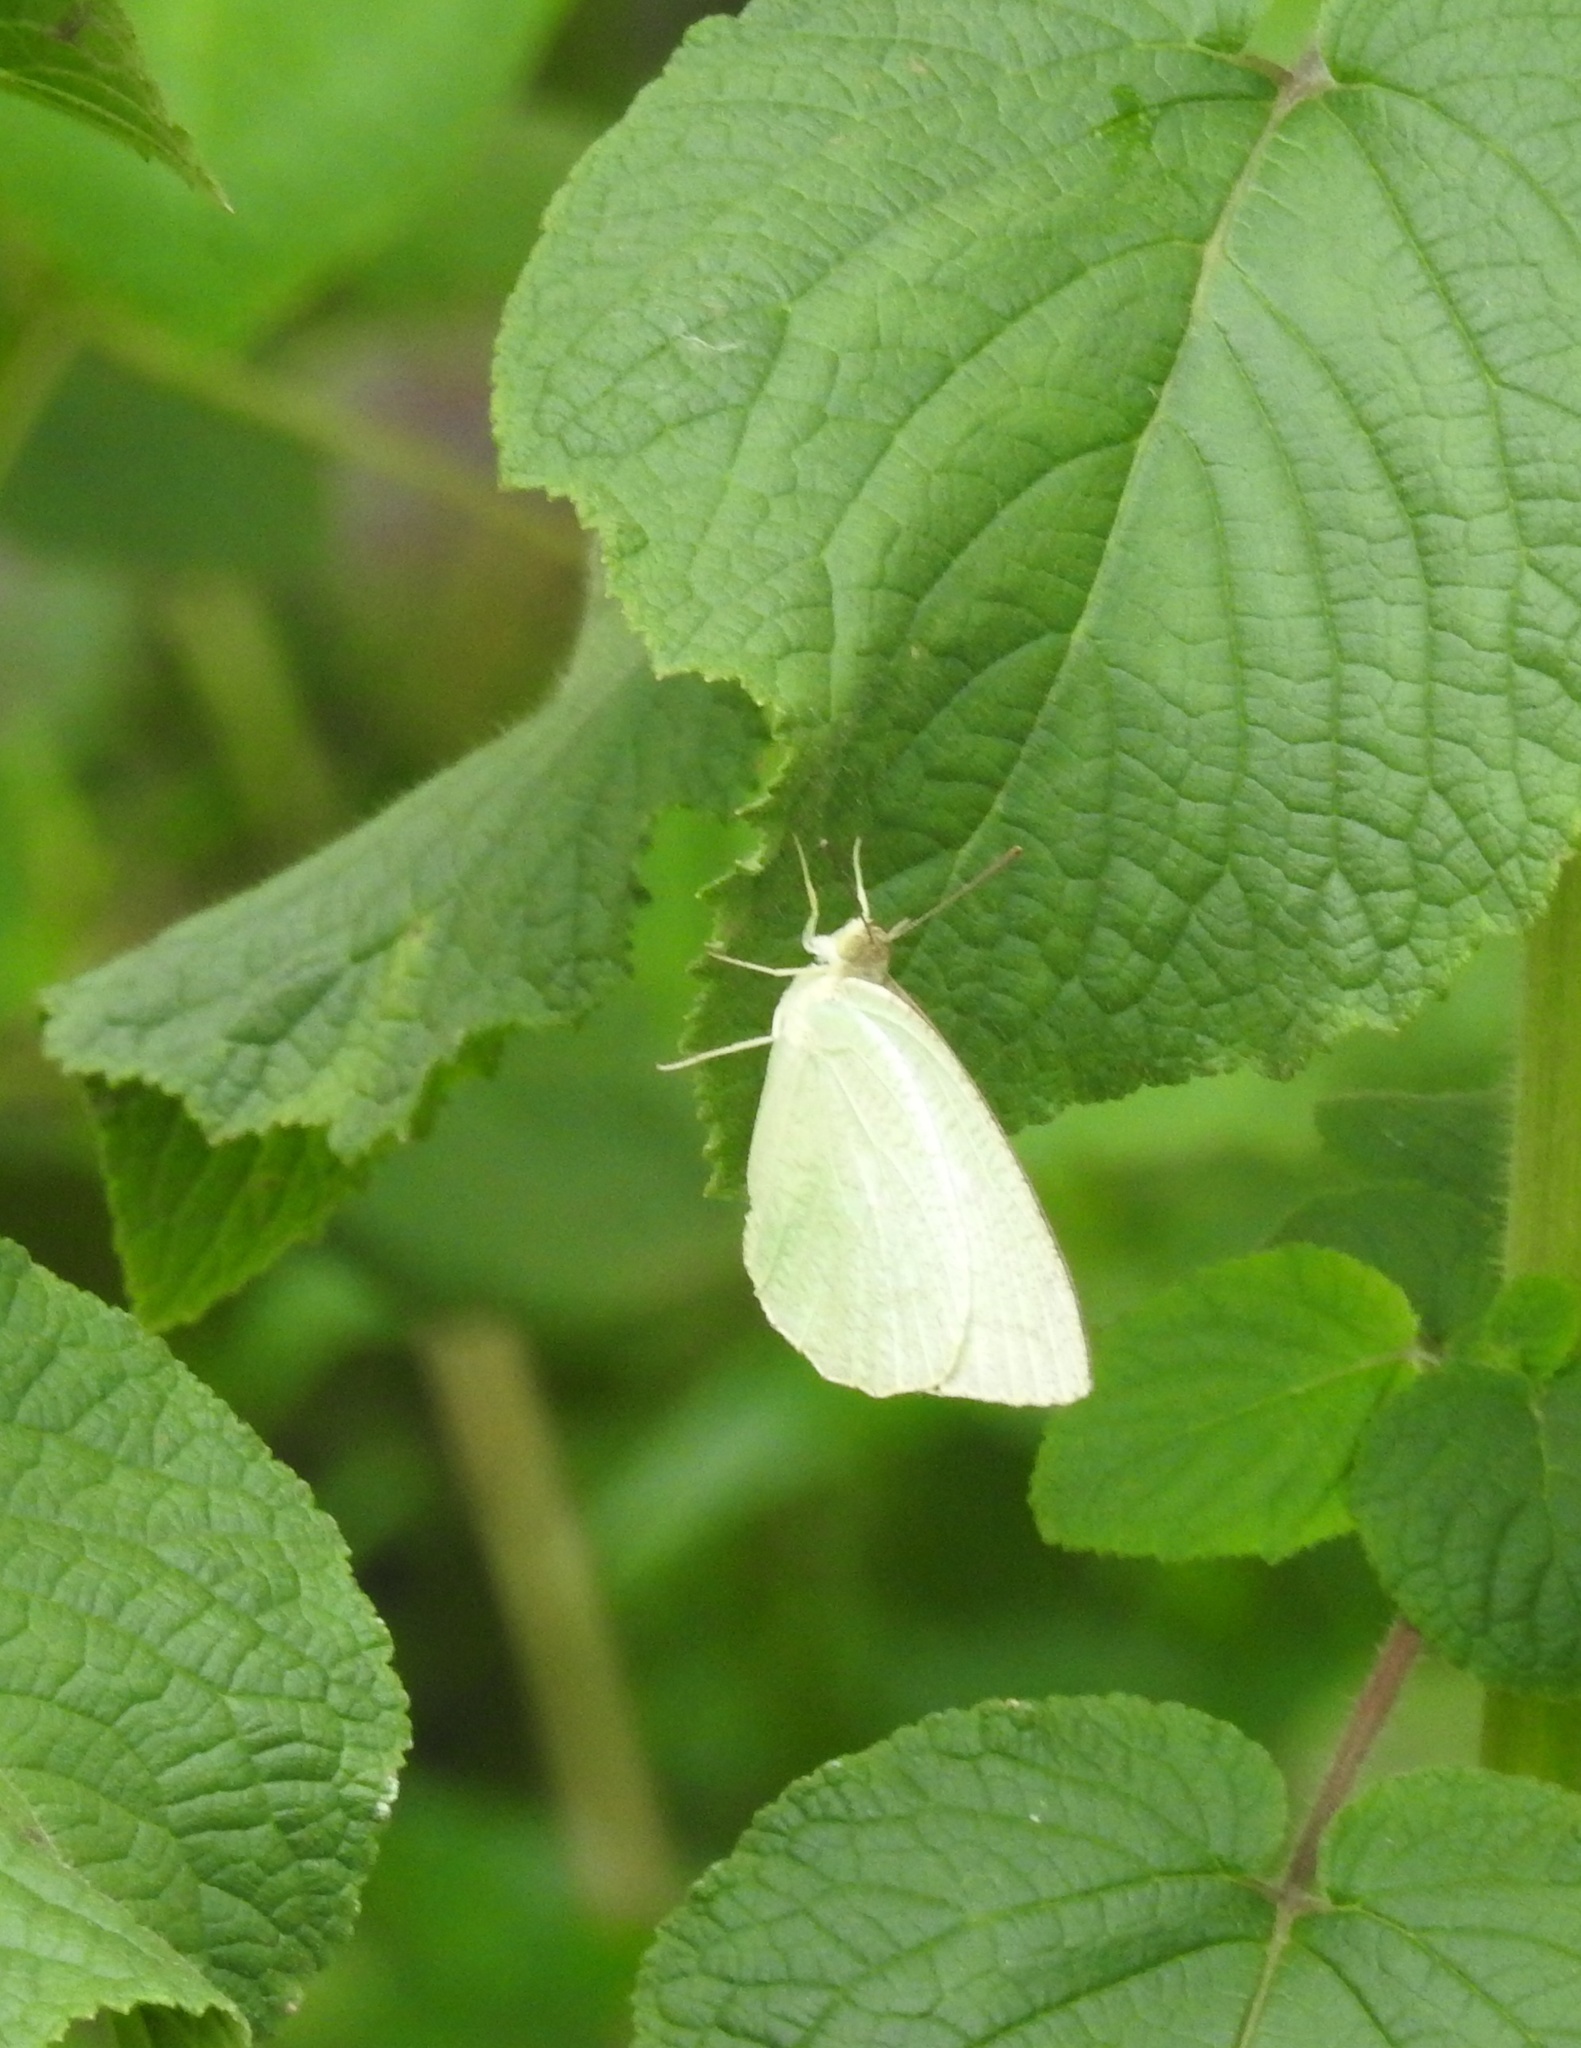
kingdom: Animalia
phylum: Arthropoda
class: Insecta
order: Lepidoptera
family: Pieridae
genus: Catopsilia
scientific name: Catopsilia pyranthe
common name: Mottled emigrant
